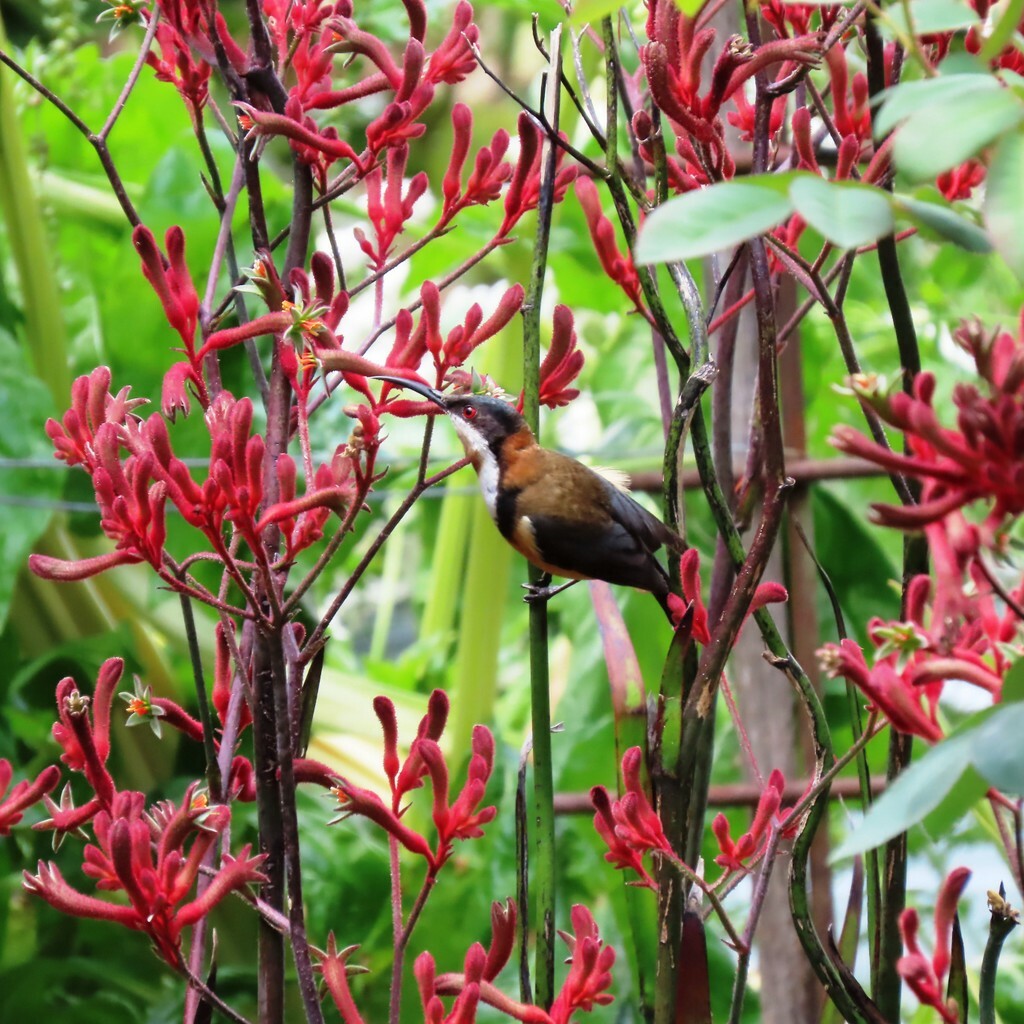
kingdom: Animalia
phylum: Chordata
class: Aves
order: Passeriformes
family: Meliphagidae
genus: Acanthorhynchus
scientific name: Acanthorhynchus tenuirostris
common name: Eastern spinebill
